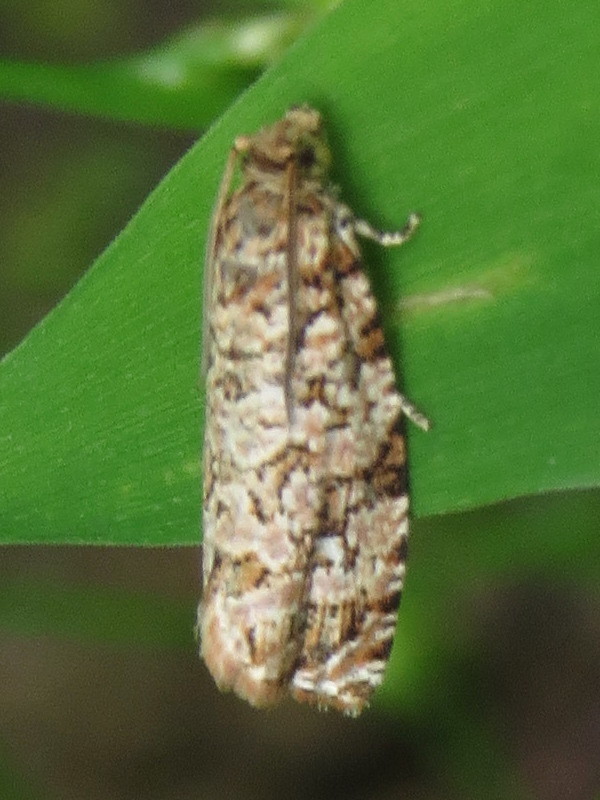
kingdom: Animalia
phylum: Arthropoda
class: Insecta
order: Lepidoptera
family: Tortricidae
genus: Phaecasiophora
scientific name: Phaecasiophora niveiguttana
